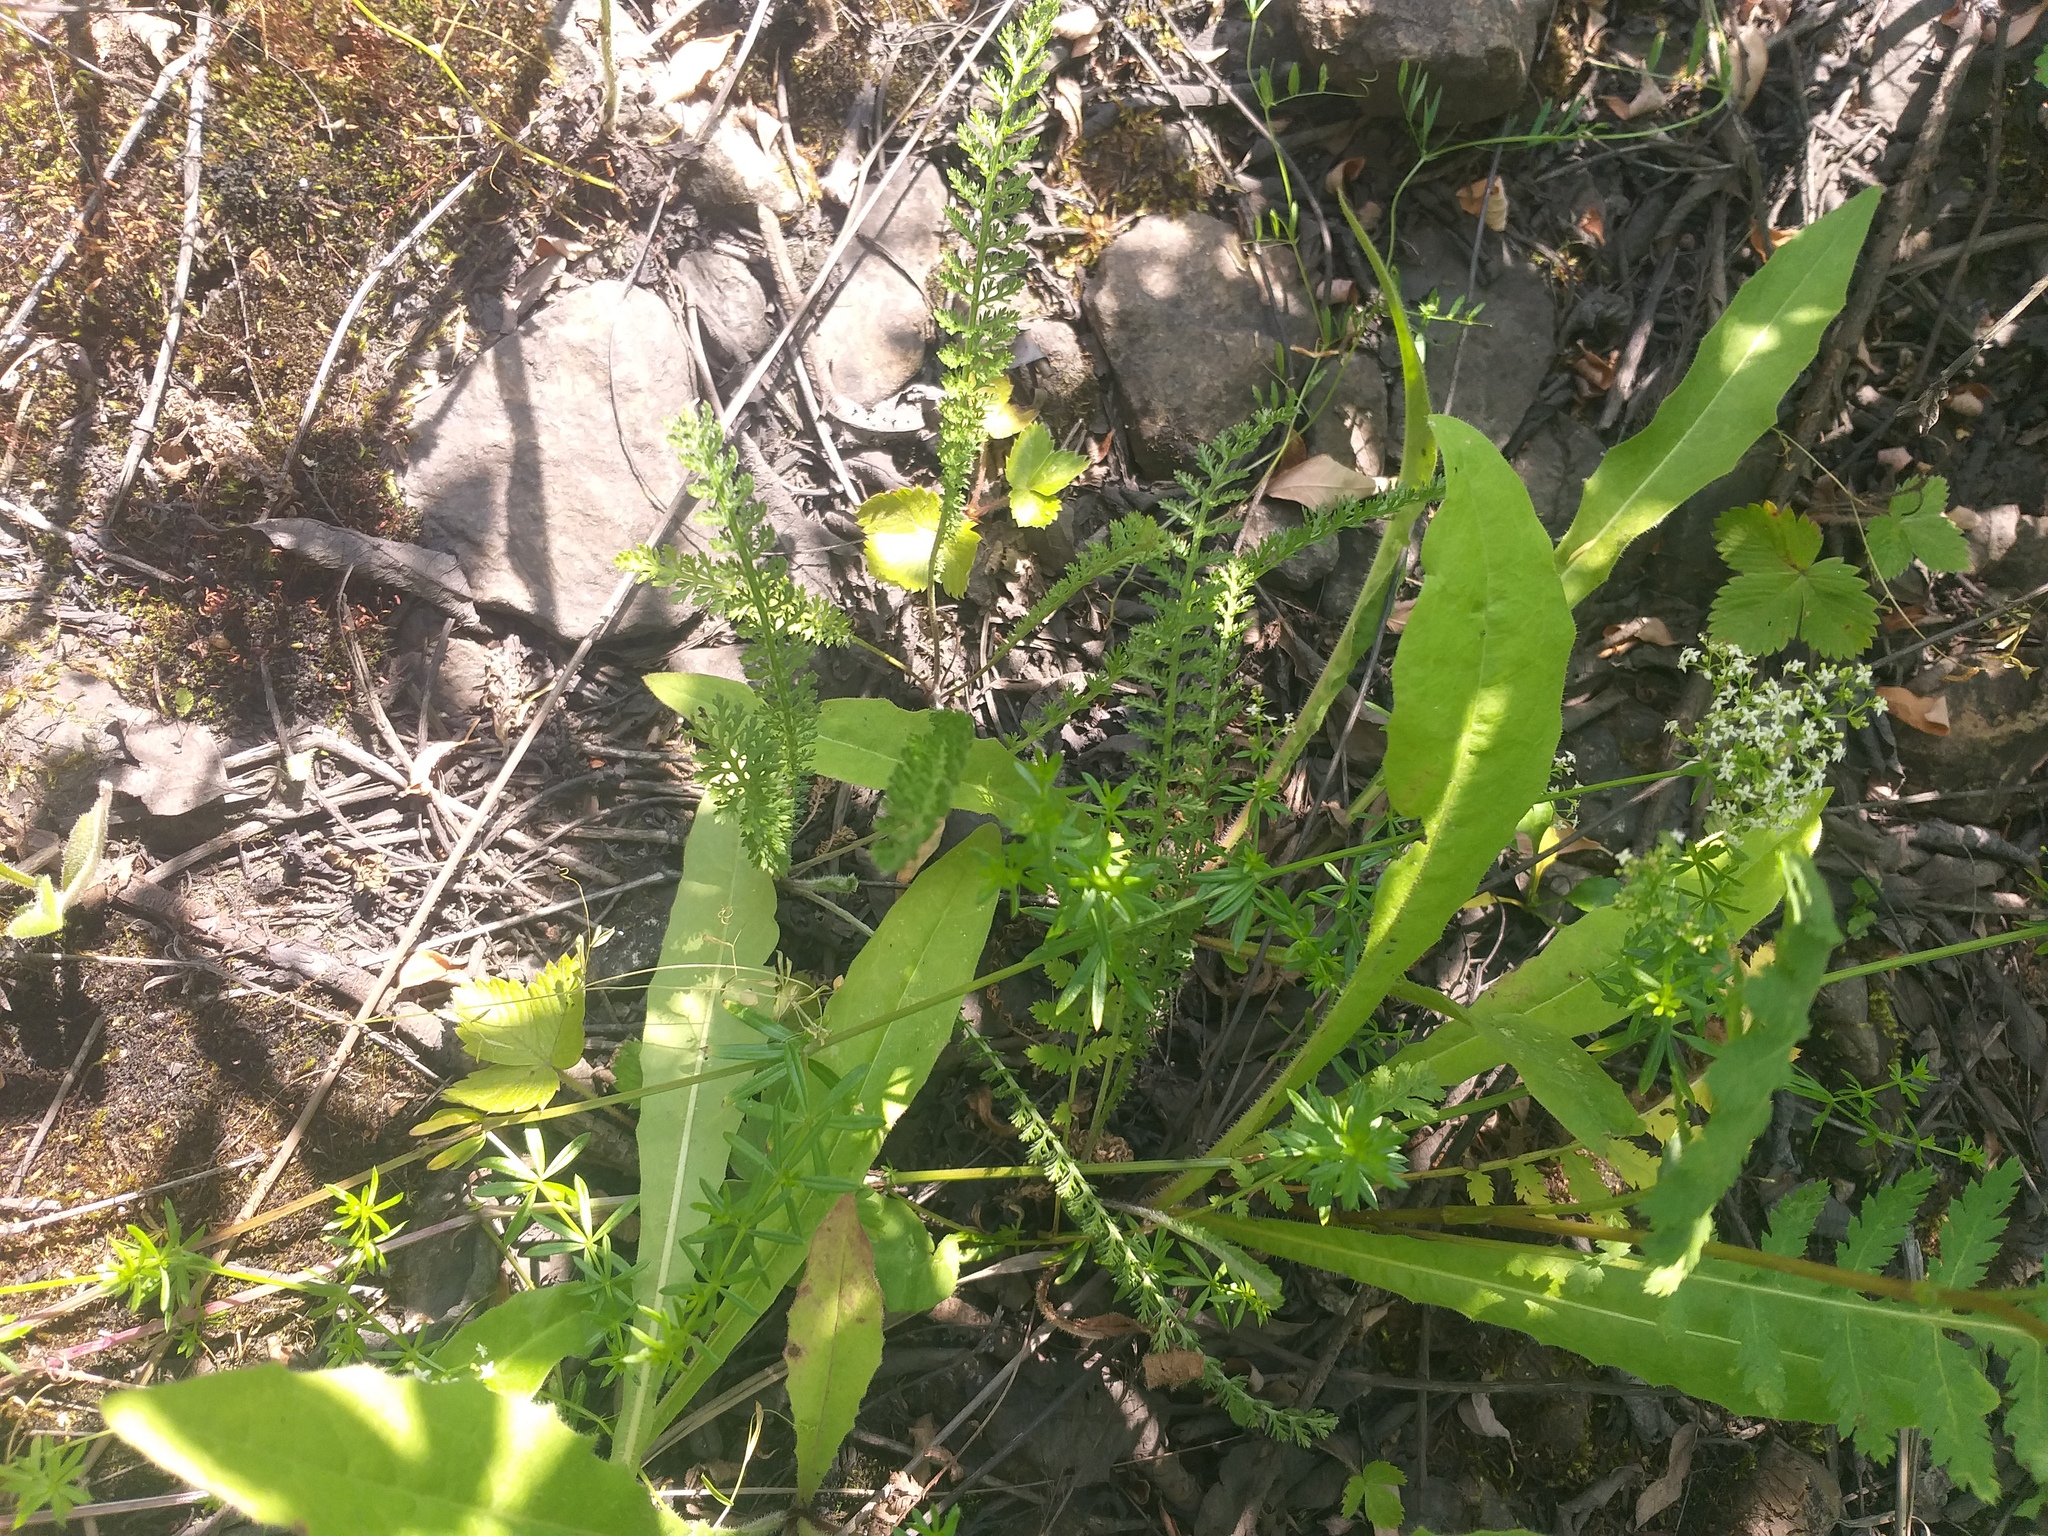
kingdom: Plantae
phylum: Tracheophyta
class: Magnoliopsida
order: Asterales
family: Asteraceae
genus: Achillea
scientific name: Achillea millefolium
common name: Yarrow
